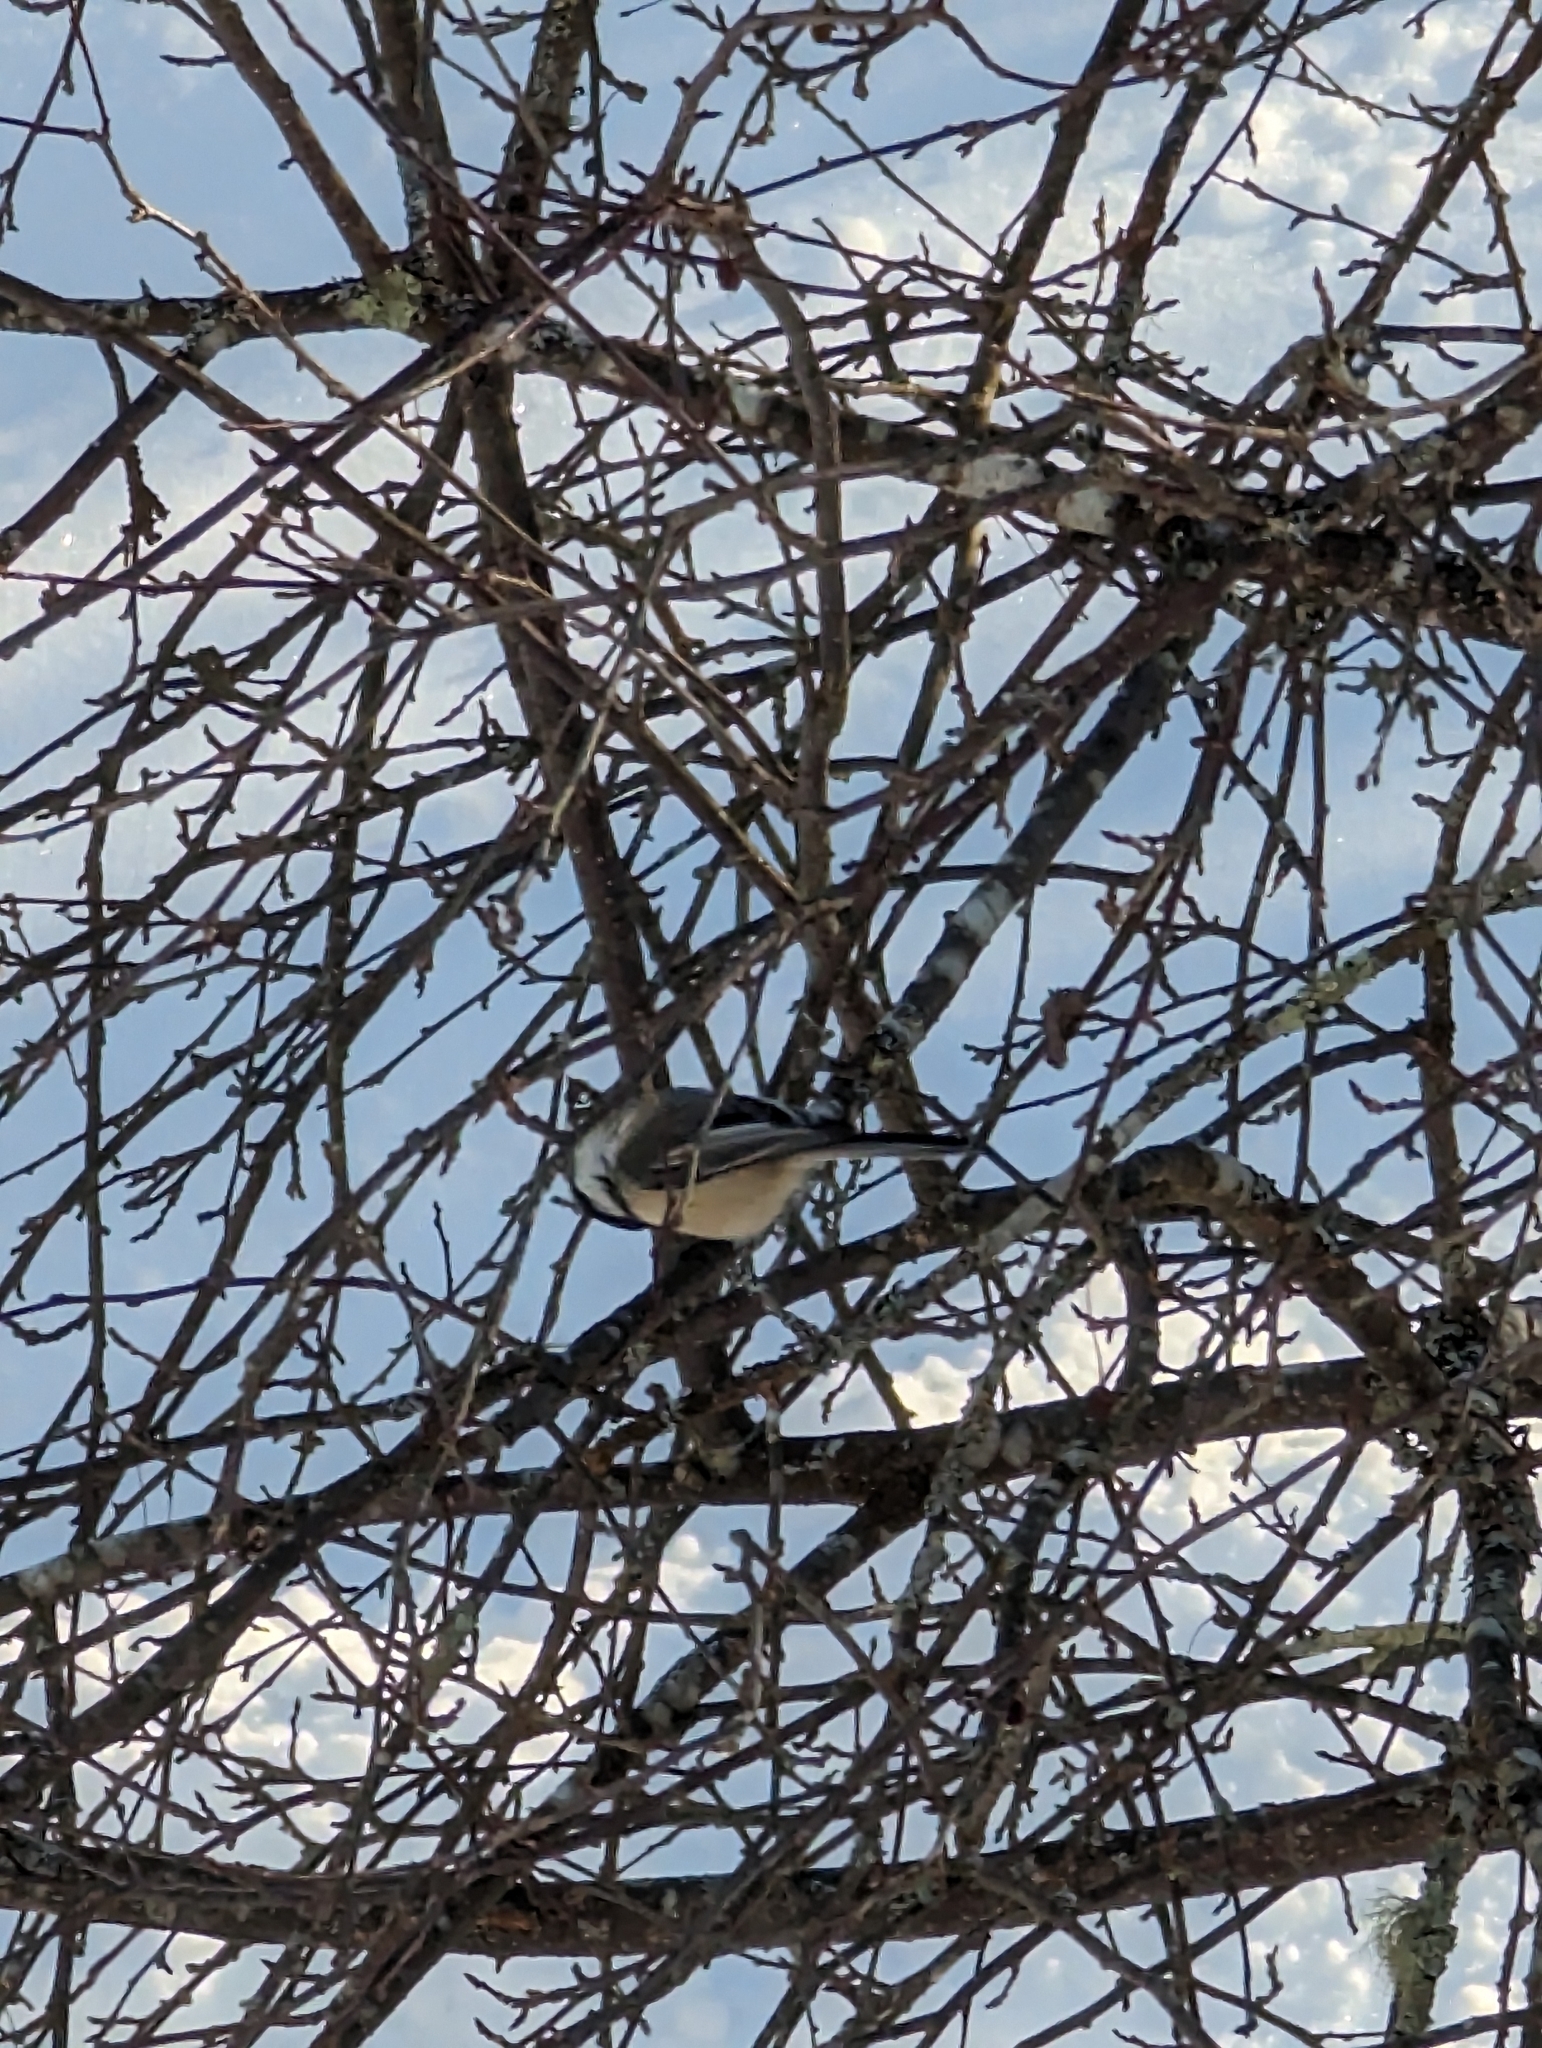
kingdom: Animalia
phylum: Chordata
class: Aves
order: Passeriformes
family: Paridae
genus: Poecile
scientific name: Poecile atricapillus
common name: Black-capped chickadee
